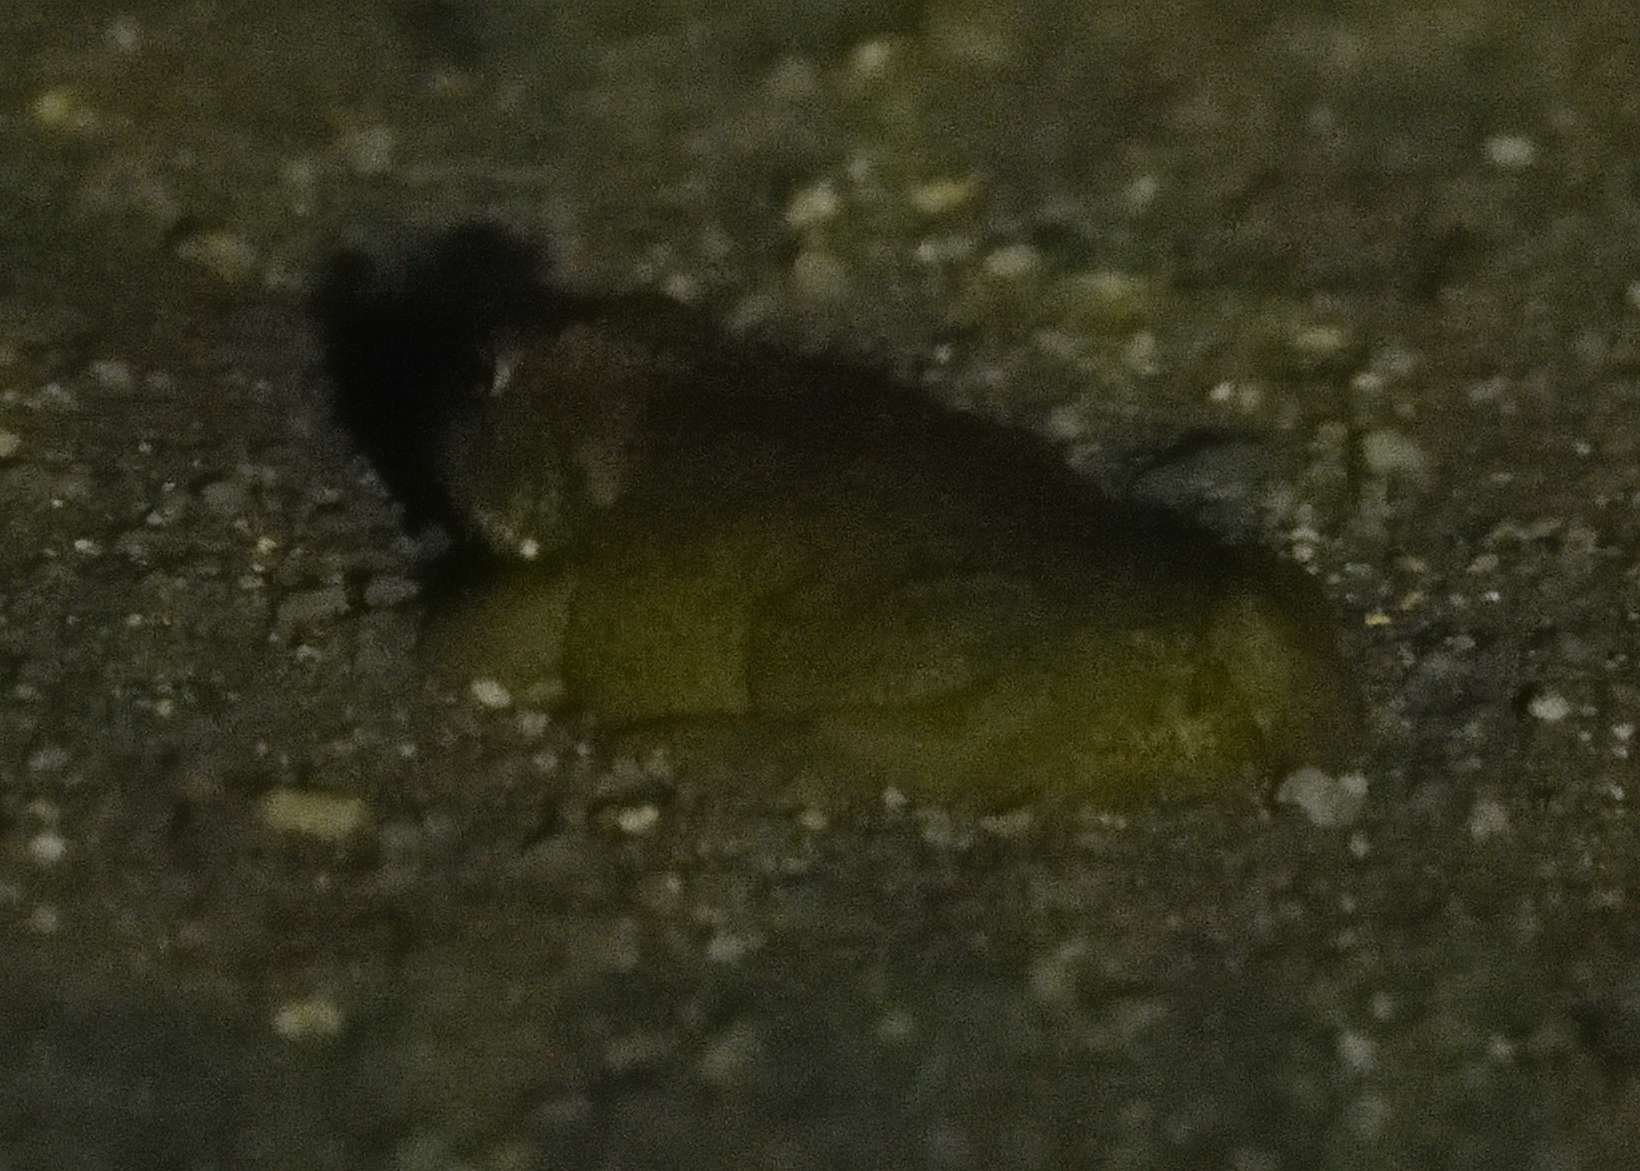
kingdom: Animalia
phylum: Chordata
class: Amphibia
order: Anura
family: Bufonidae
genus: Incilius
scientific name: Incilius alvarius
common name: Sonoran desert toad
